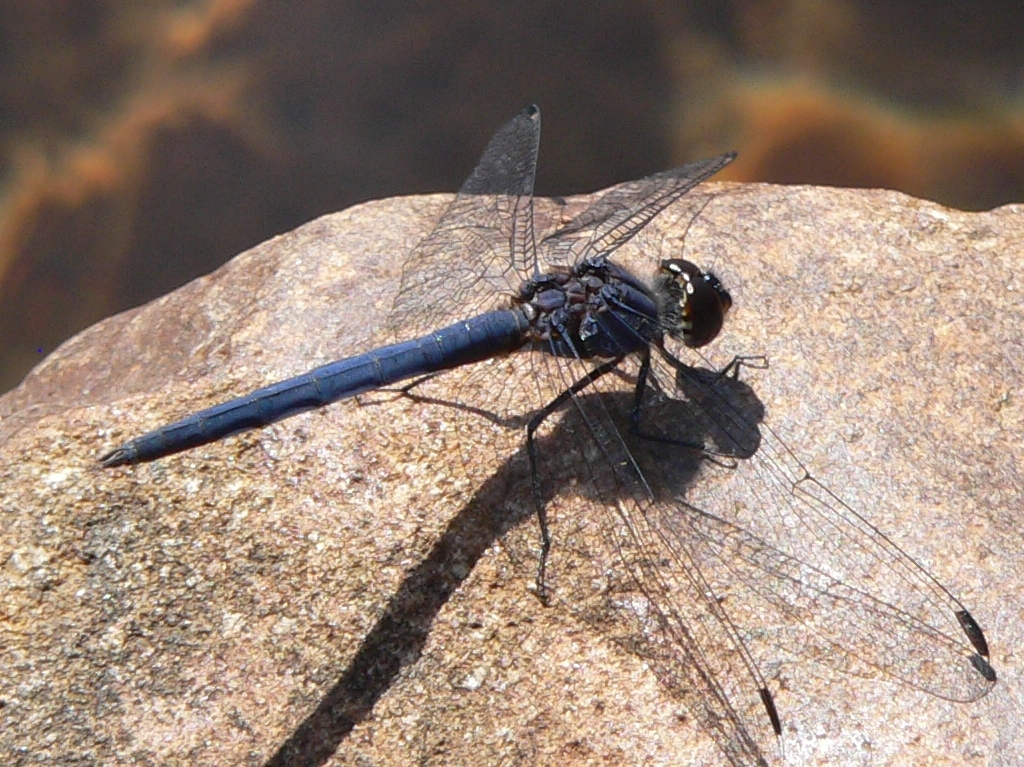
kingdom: Animalia
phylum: Arthropoda
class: Insecta
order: Odonata
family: Libellulidae
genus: Trithemis
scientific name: Trithemis furva
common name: Dark dropwing
